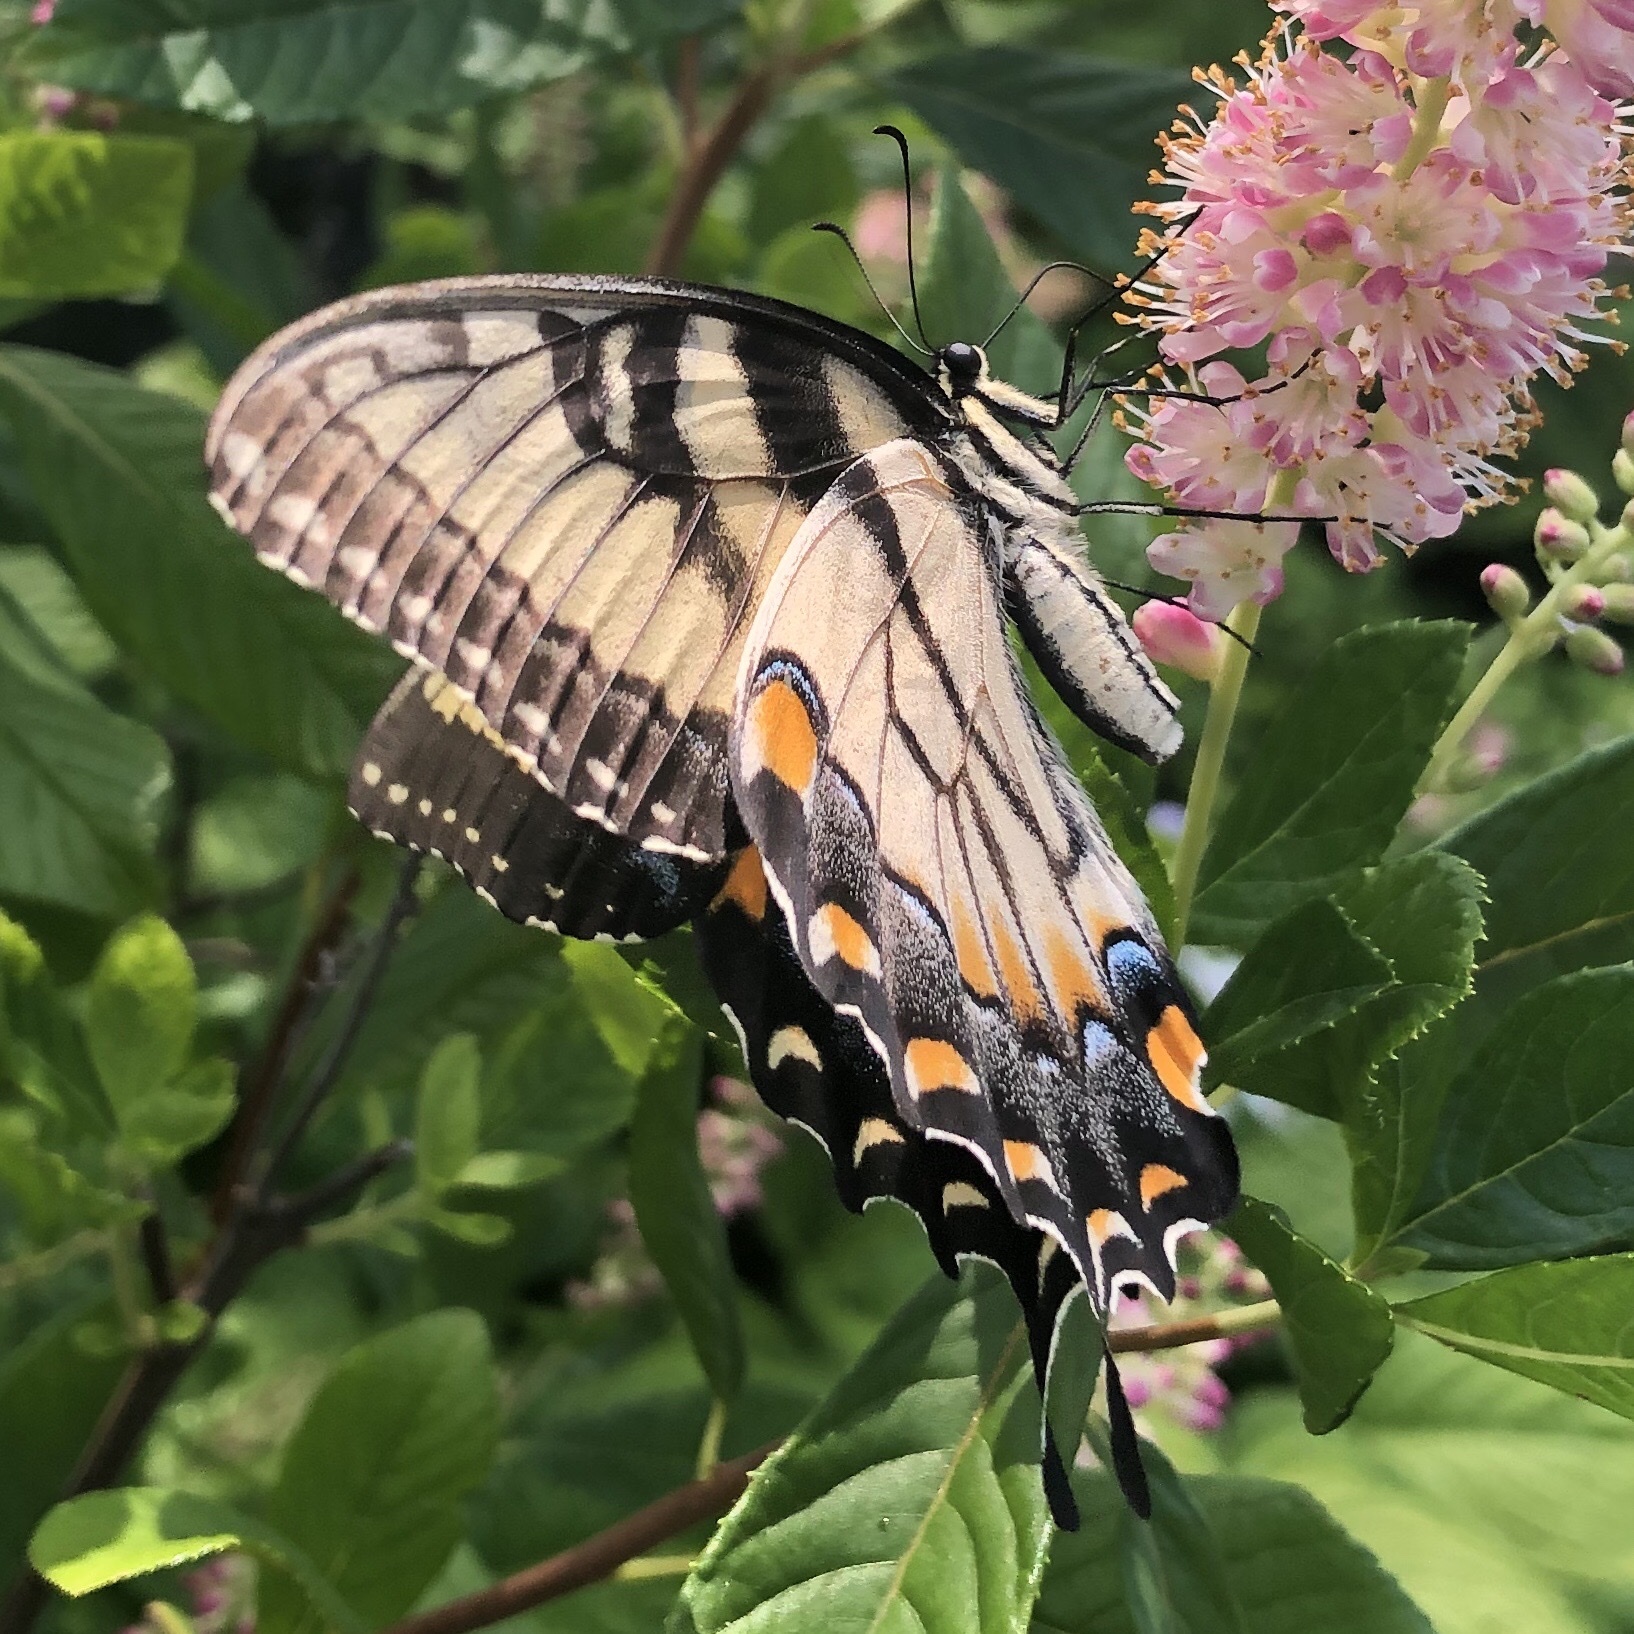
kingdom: Animalia
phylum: Arthropoda
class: Insecta
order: Lepidoptera
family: Papilionidae
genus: Papilio
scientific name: Papilio glaucus
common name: Tiger swallowtail
